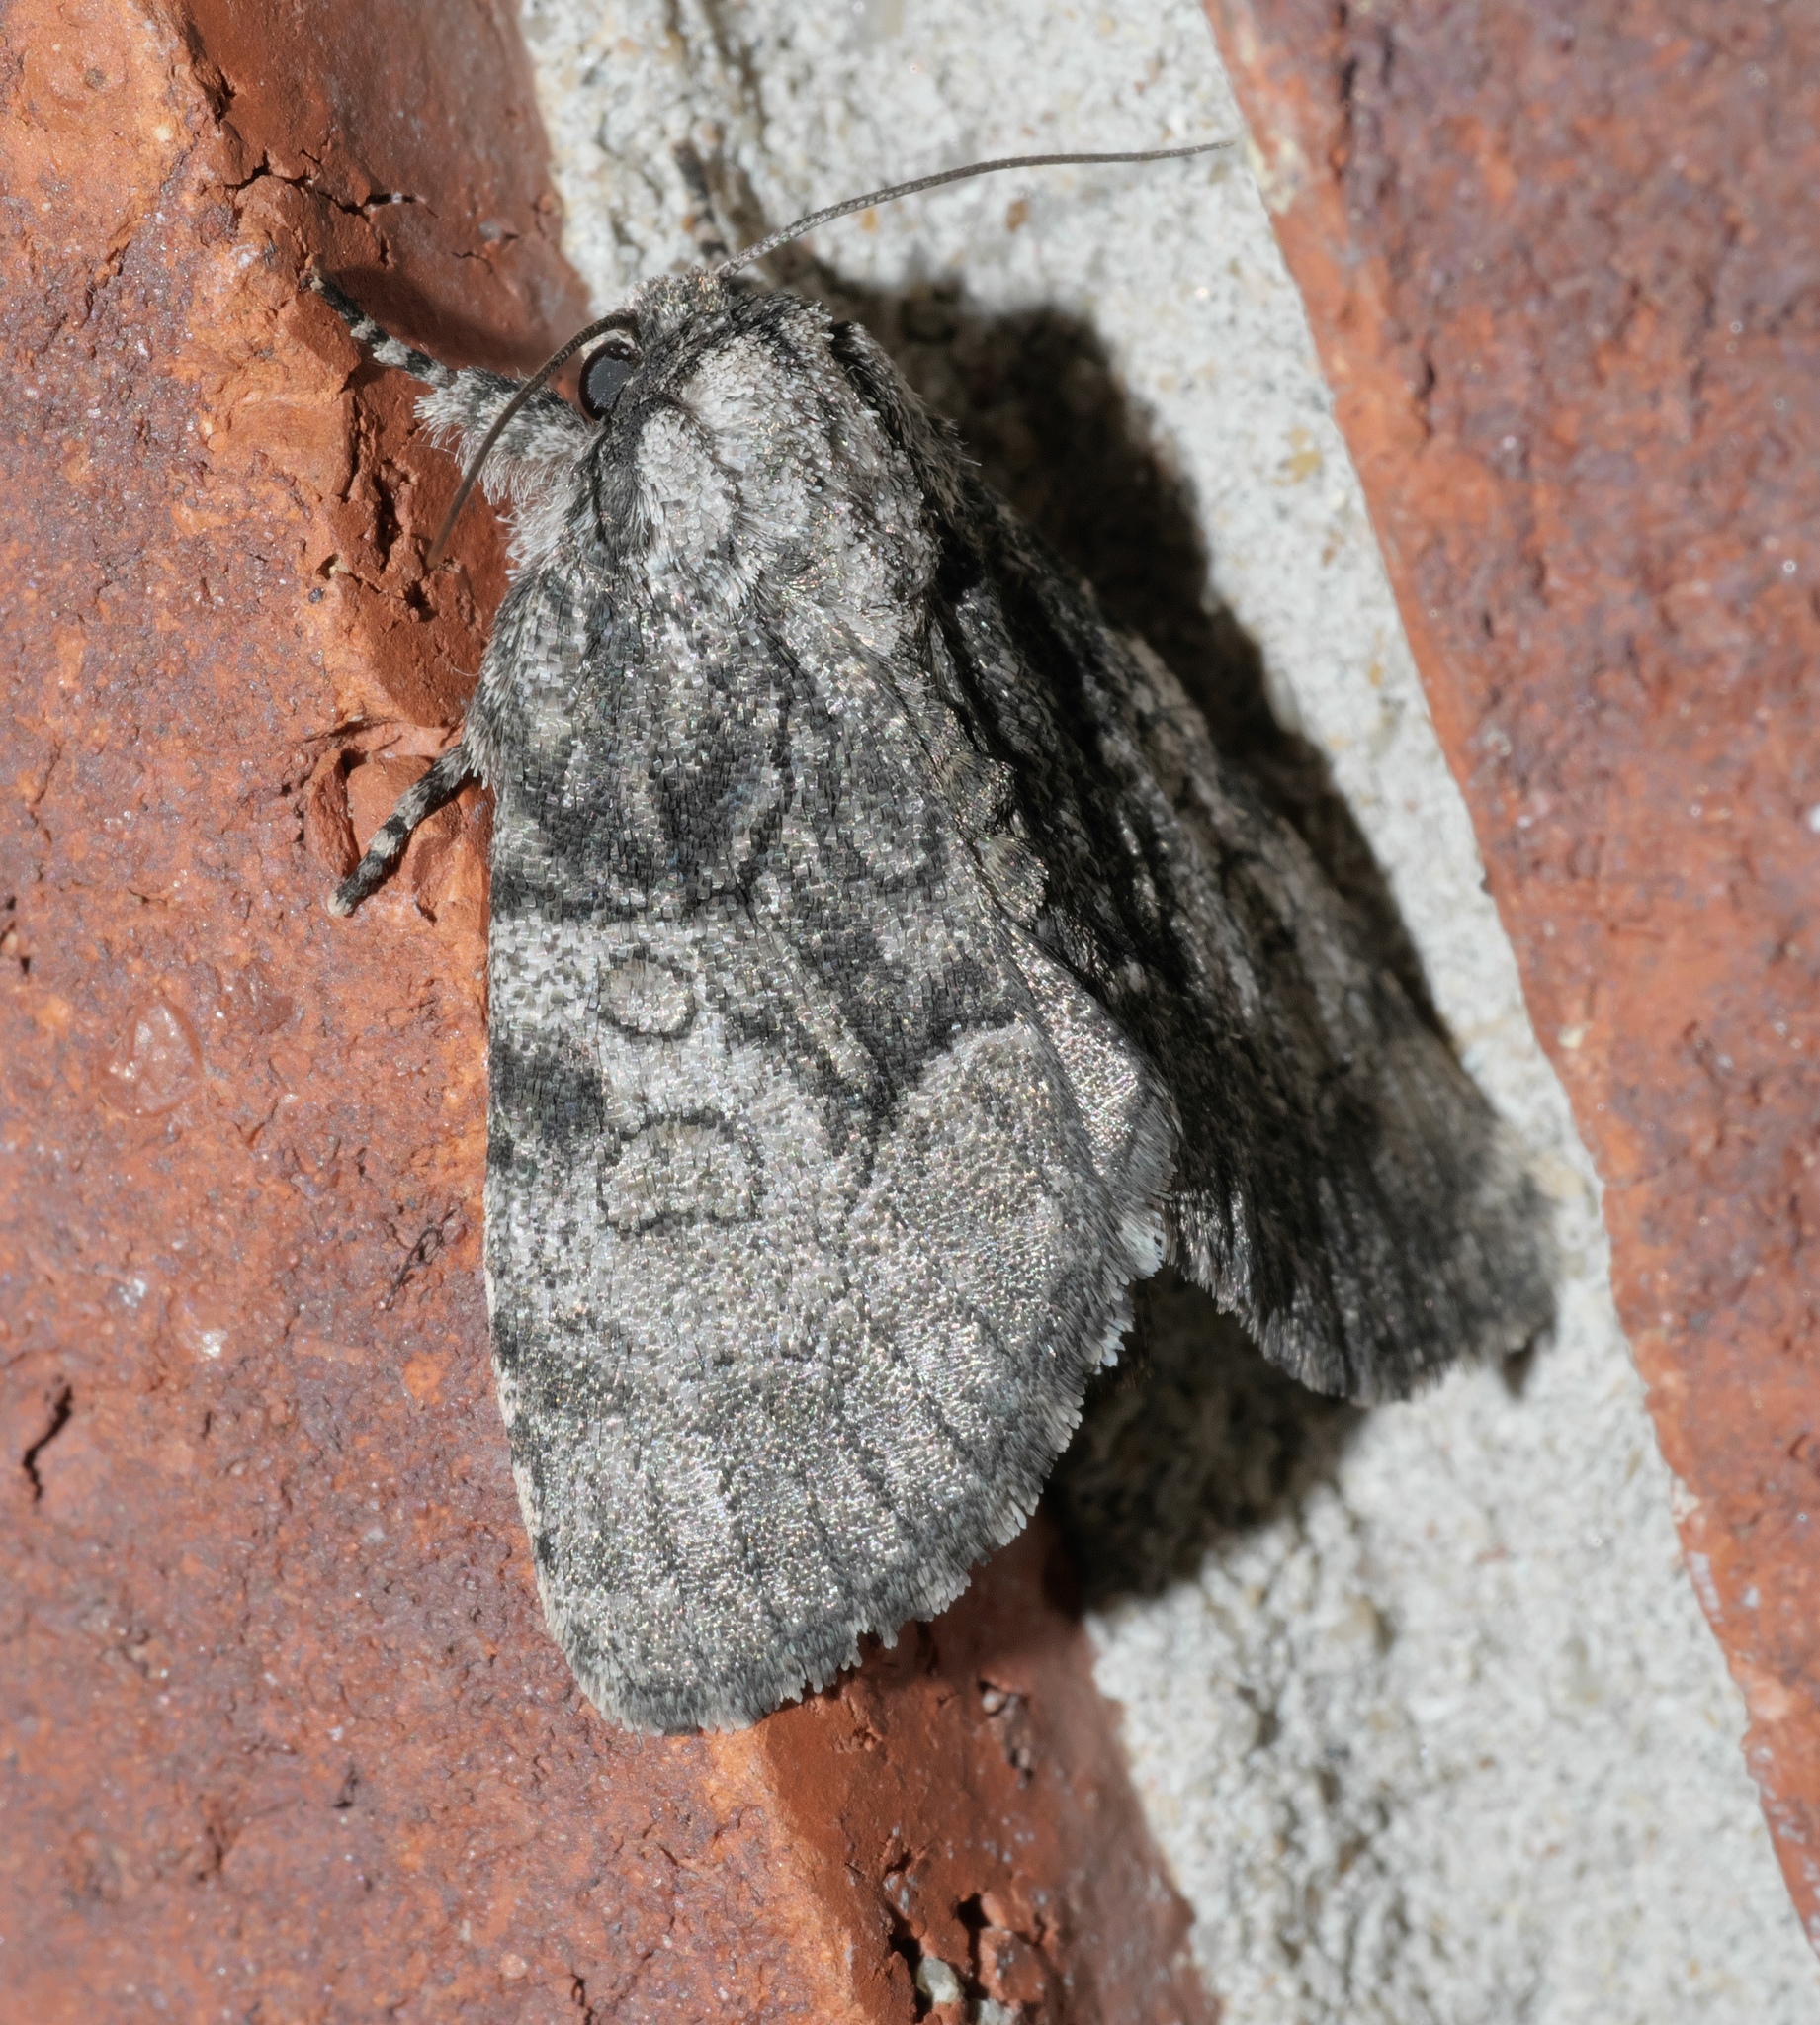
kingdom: Animalia
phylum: Arthropoda
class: Insecta
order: Lepidoptera
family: Noctuidae
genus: Raphia
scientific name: Raphia frater
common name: Brother
